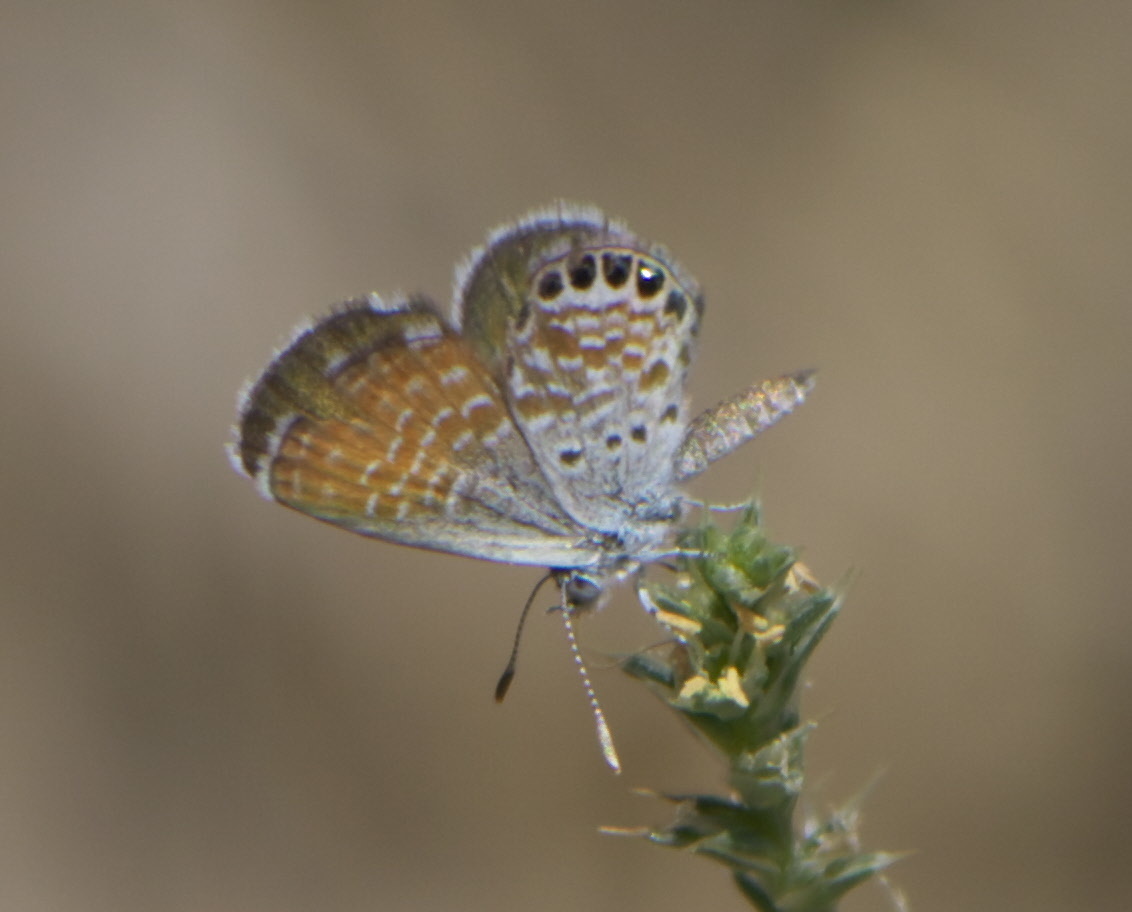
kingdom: Animalia
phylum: Arthropoda
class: Insecta
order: Lepidoptera
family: Lycaenidae
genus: Brephidium
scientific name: Brephidium exilis
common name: Pygmy blue
